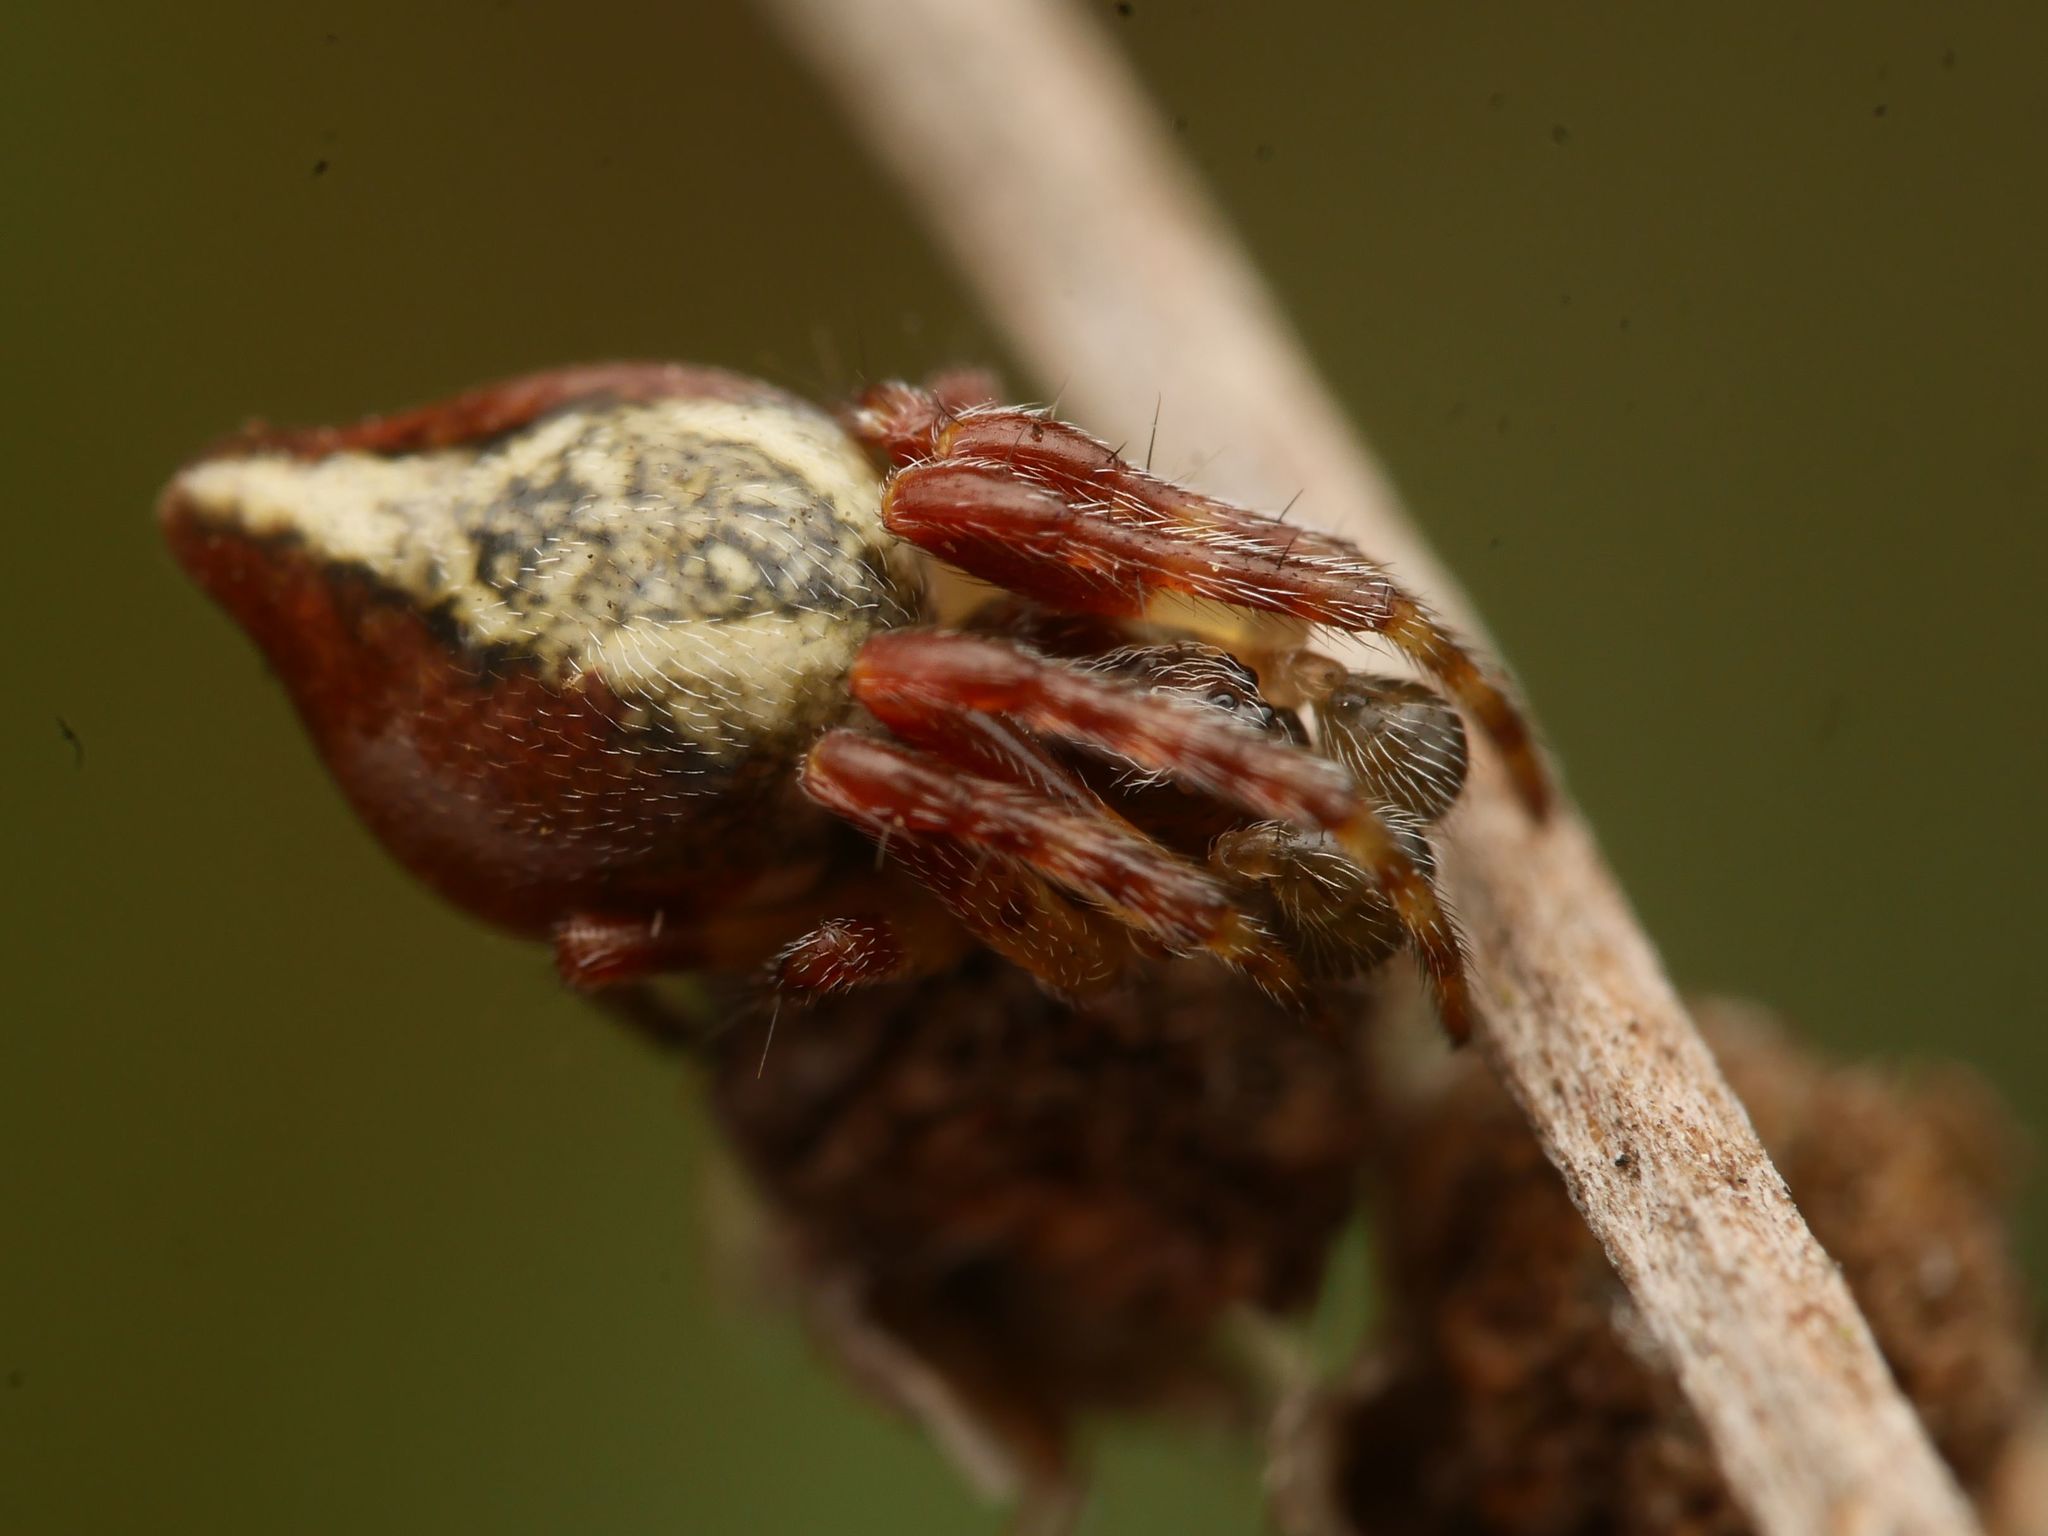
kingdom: Animalia
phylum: Arthropoda
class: Arachnida
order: Araneae
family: Araneidae
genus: Cyclosa
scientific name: Cyclosa conica
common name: Conical trashline orbweaver
